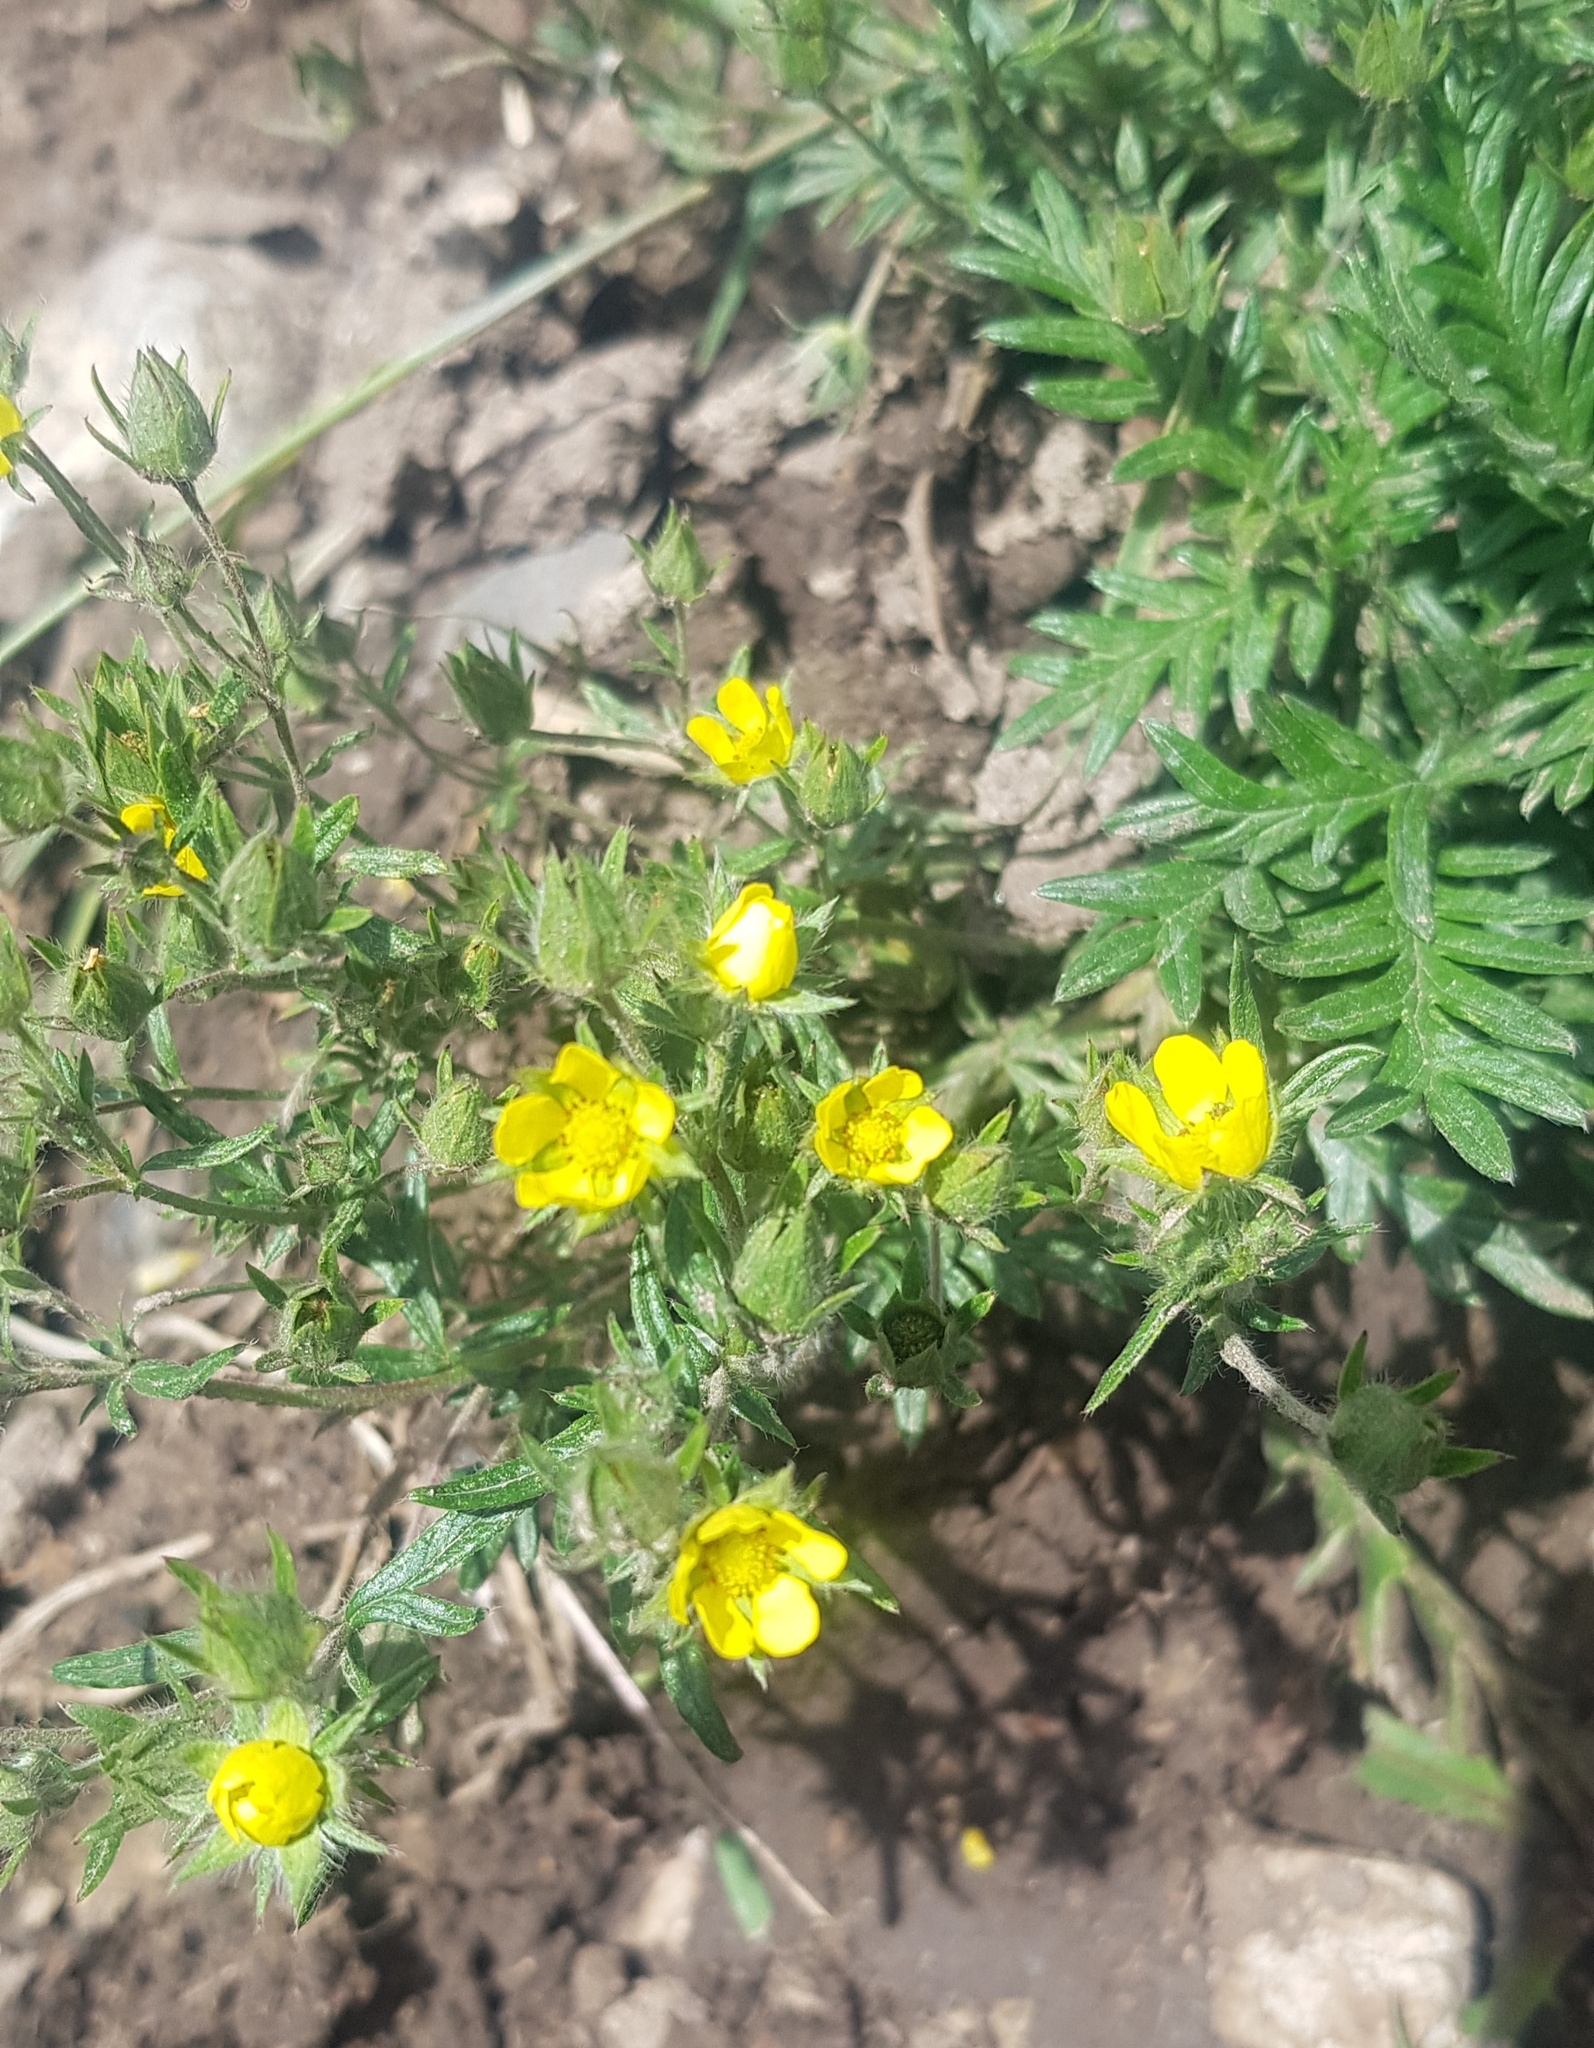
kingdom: Plantae
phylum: Tracheophyta
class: Magnoliopsida
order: Rosales
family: Rosaceae
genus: Potentilla
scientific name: Potentilla tergemina
